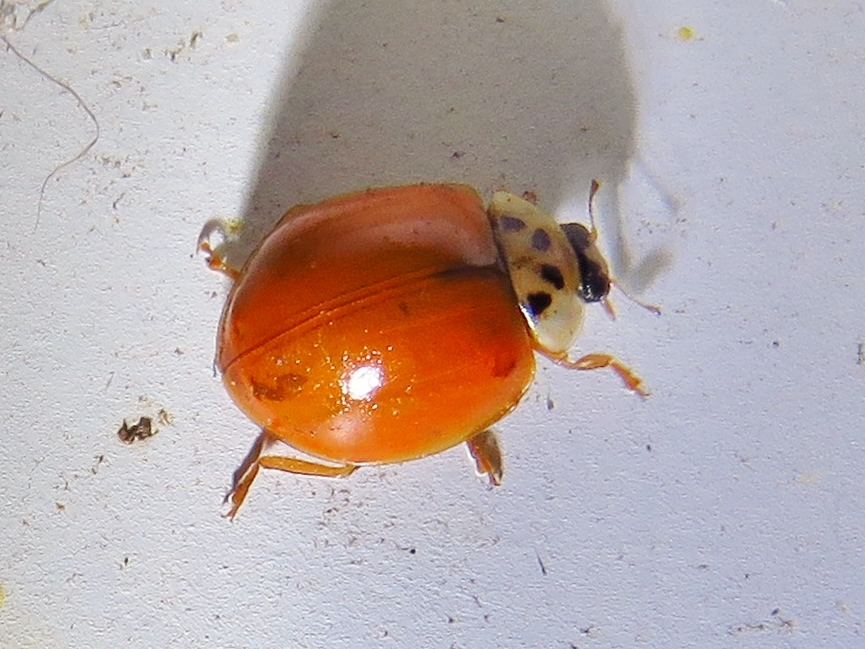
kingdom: Animalia
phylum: Arthropoda
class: Insecta
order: Coleoptera
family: Coccinellidae
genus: Harmonia
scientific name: Harmonia axyridis
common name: Harlequin ladybird
